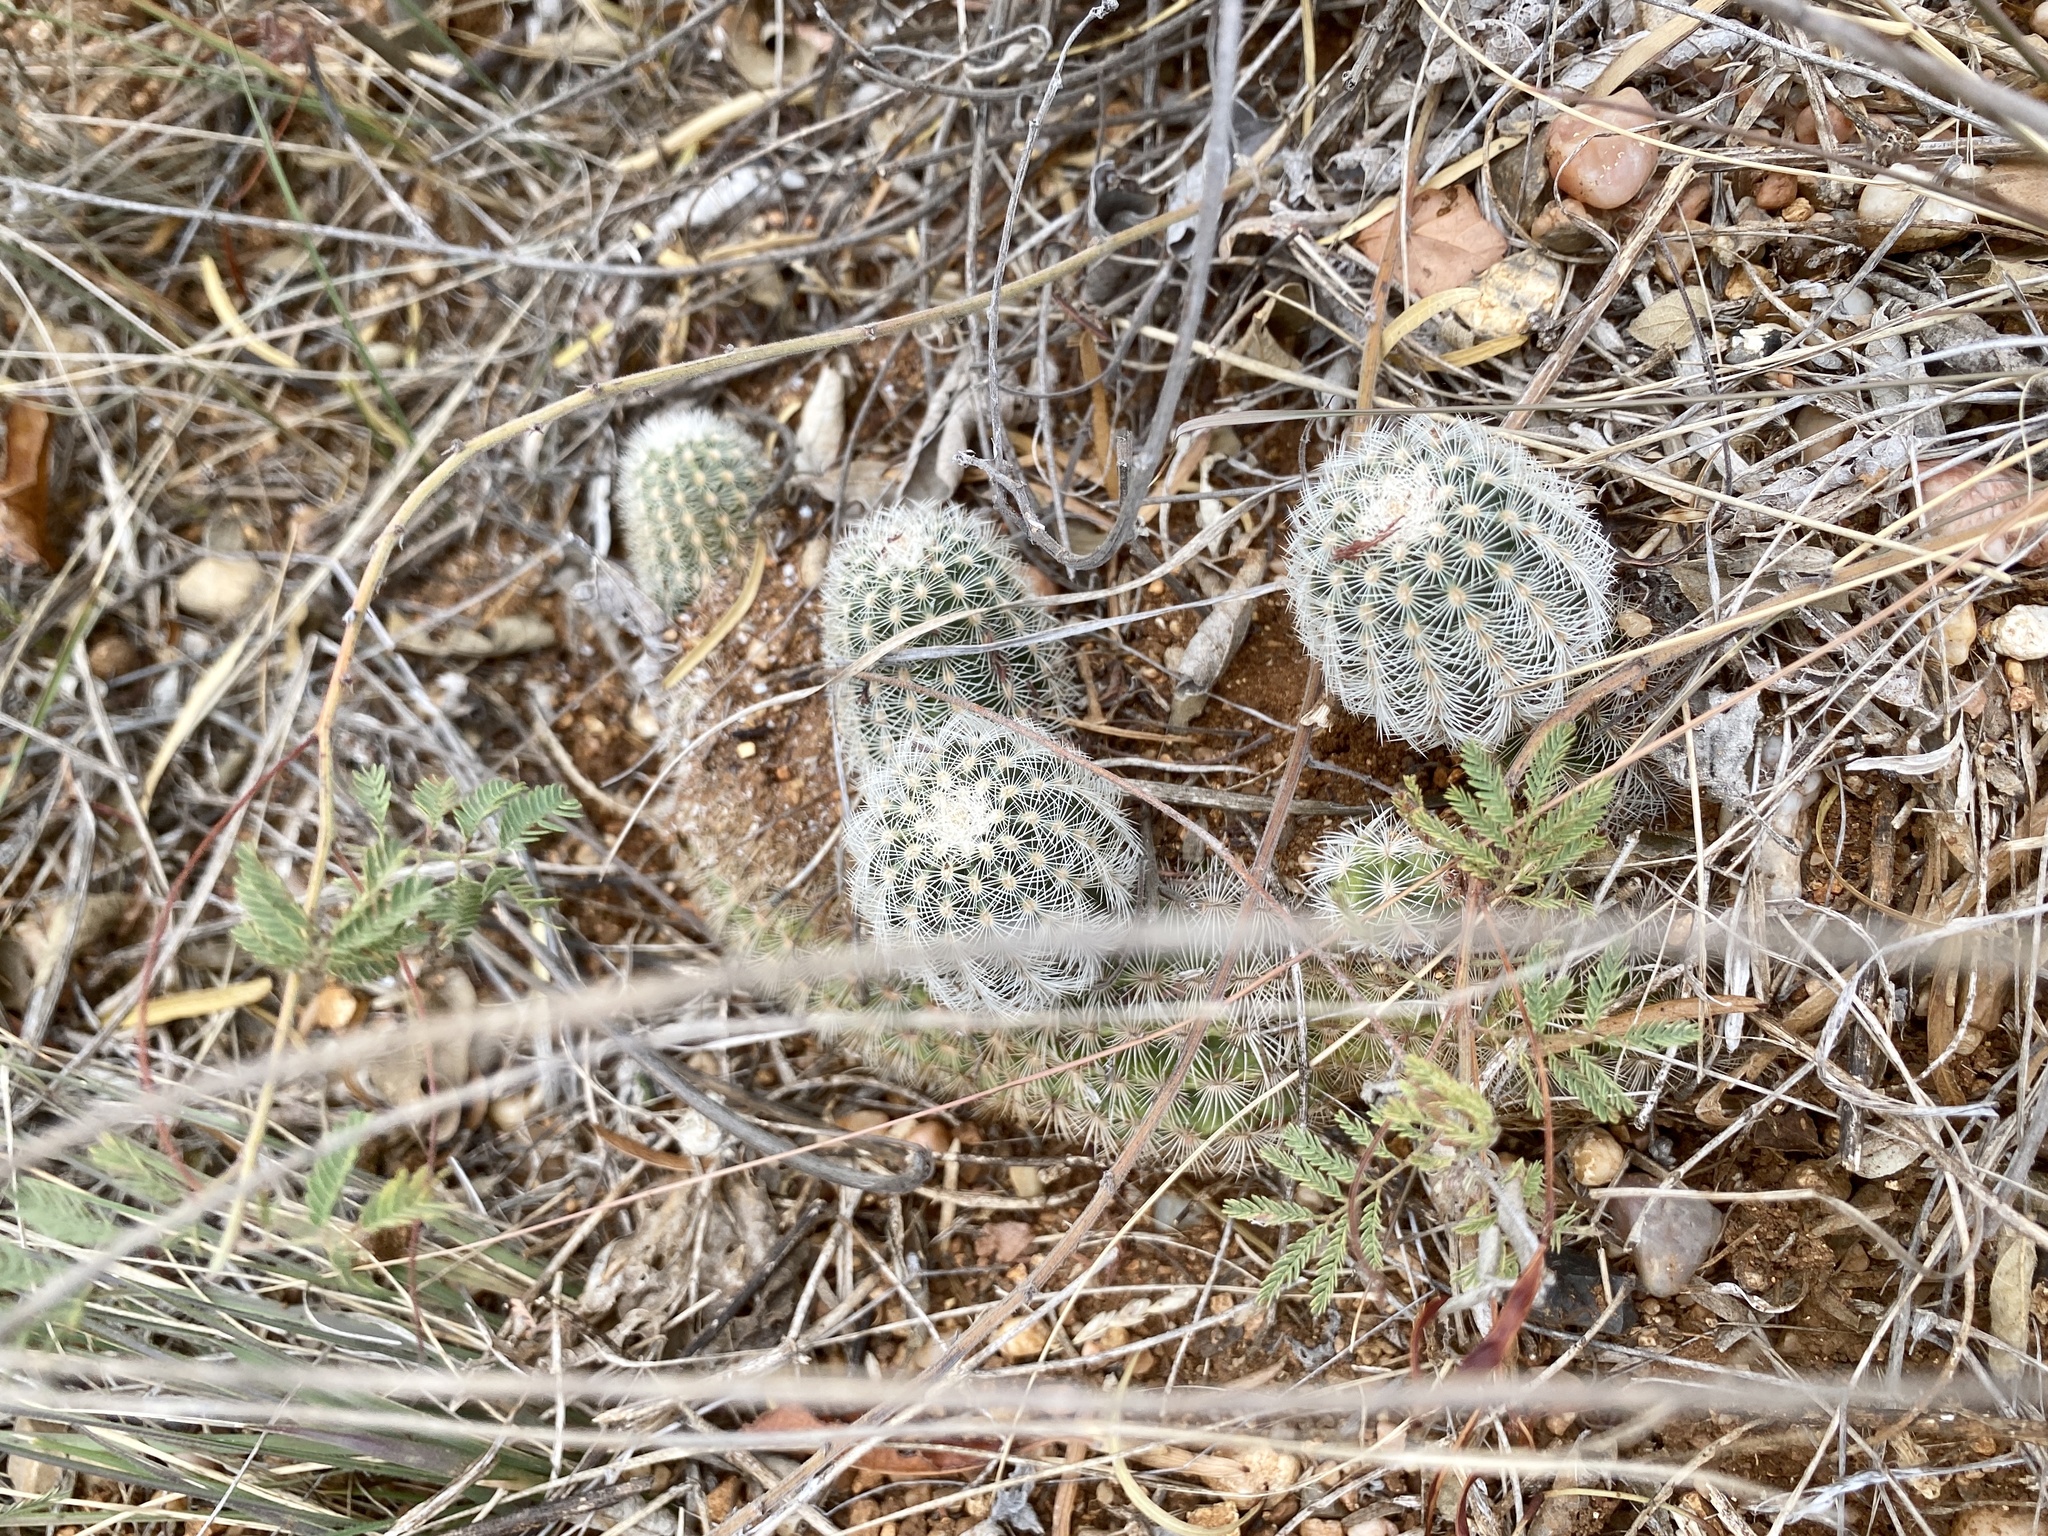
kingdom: Plantae
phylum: Tracheophyta
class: Magnoliopsida
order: Caryophyllales
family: Cactaceae
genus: Echinocereus
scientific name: Echinocereus reichenbachii
